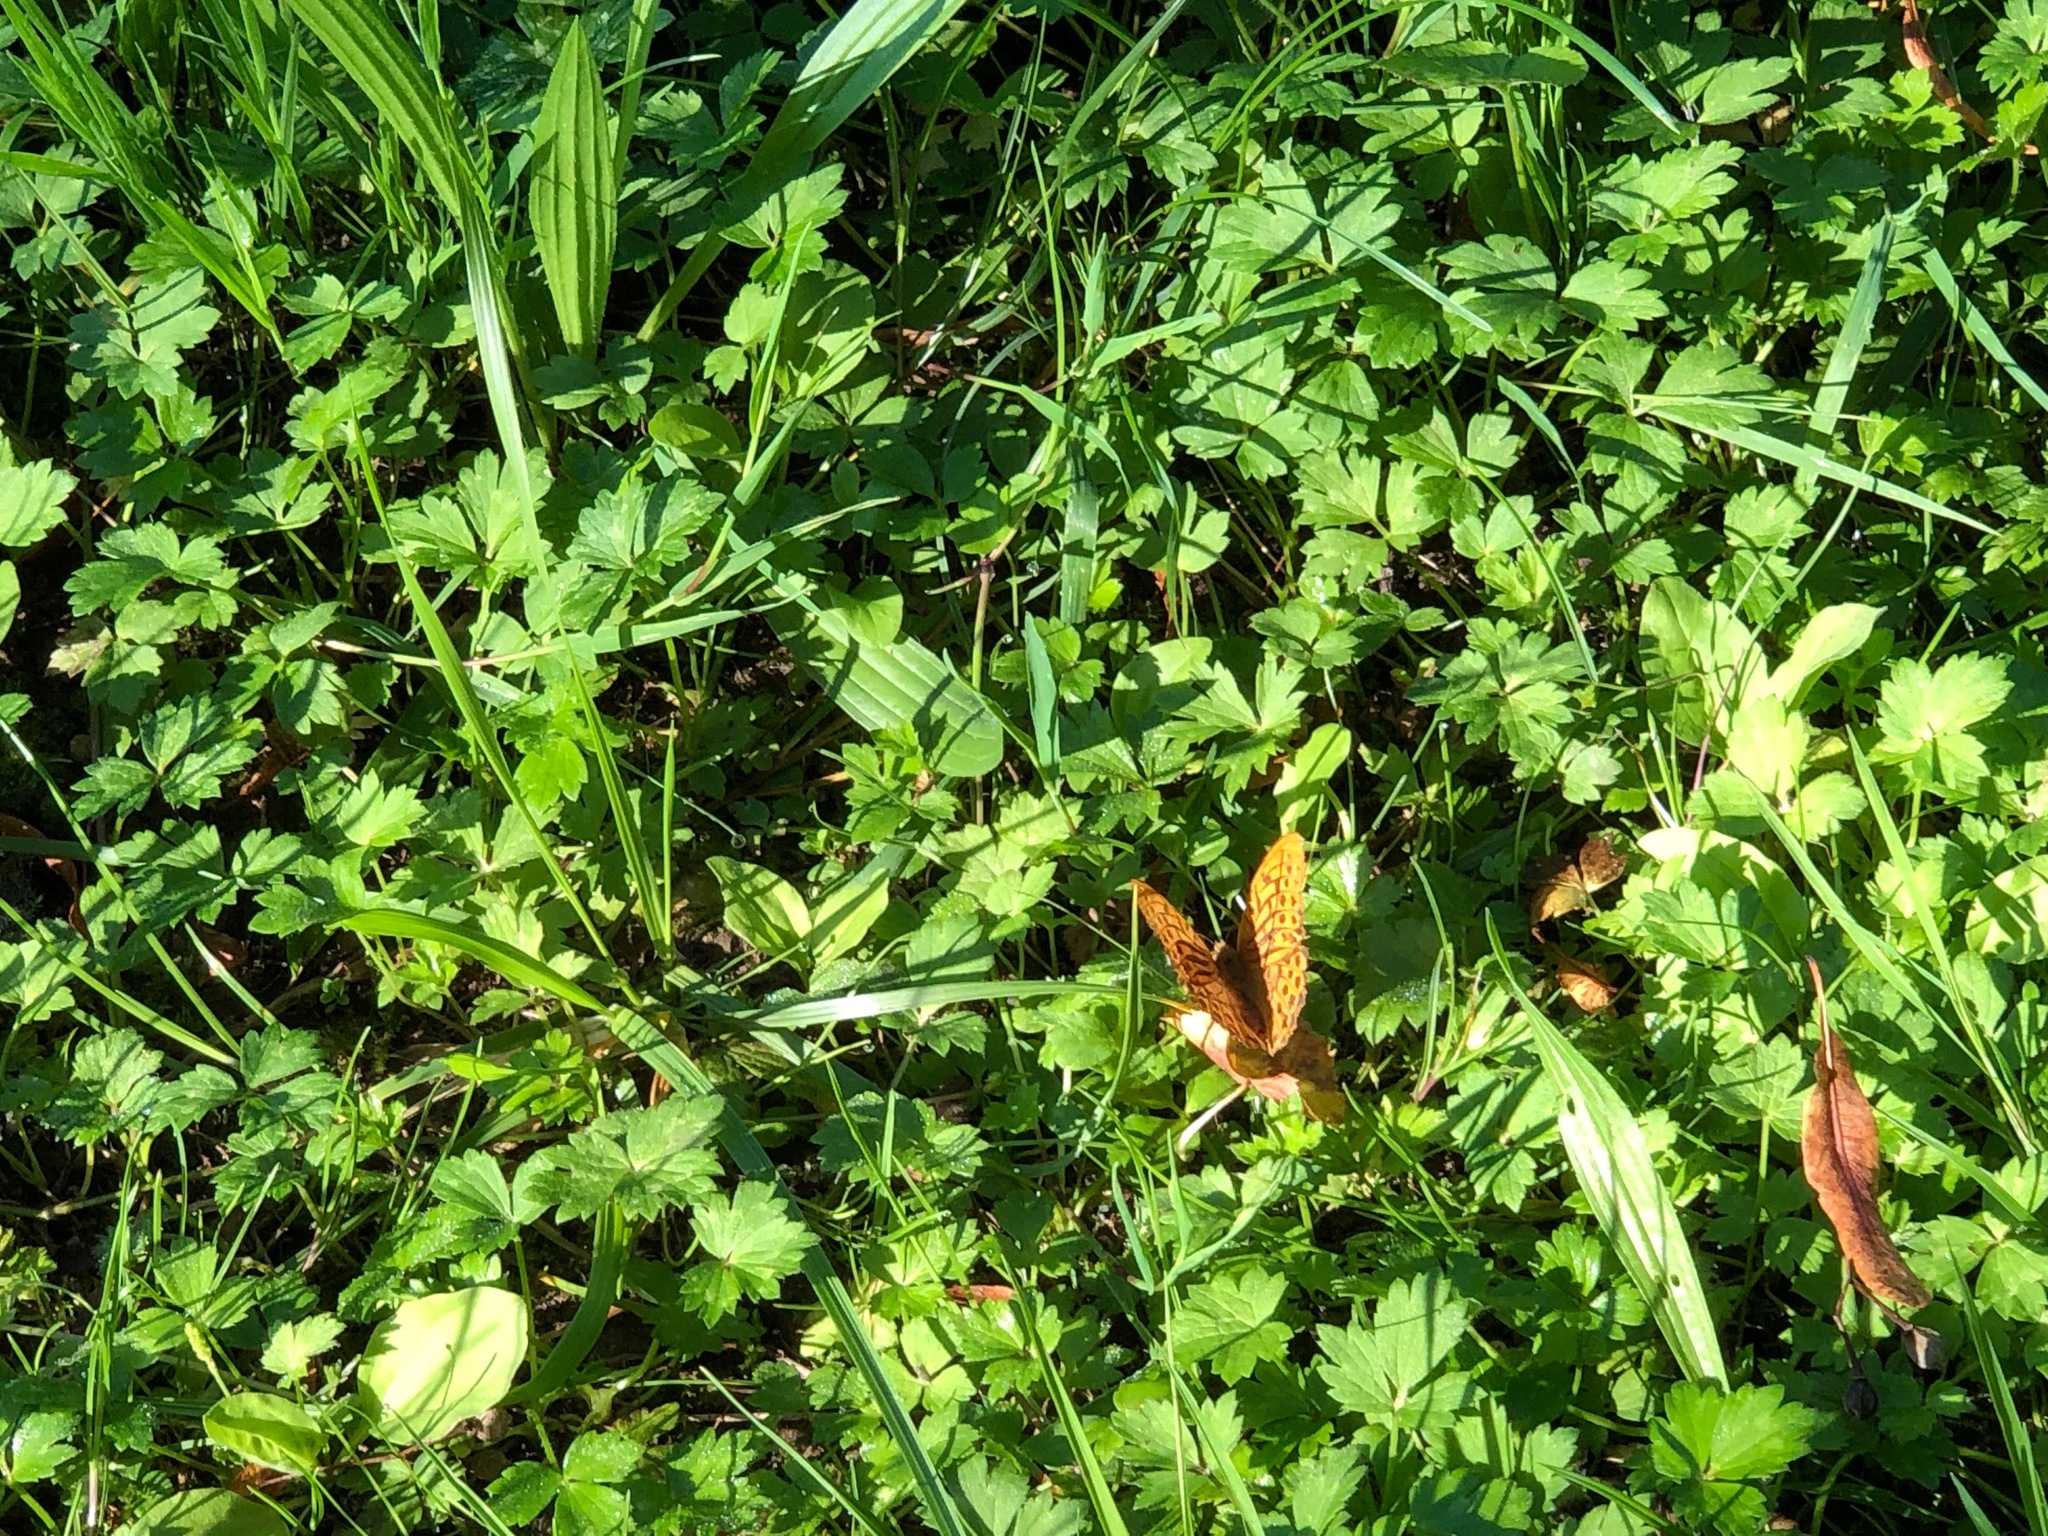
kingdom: Animalia
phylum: Arthropoda
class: Insecta
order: Lepidoptera
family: Nymphalidae
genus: Argynnis
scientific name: Argynnis paphia
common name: Silver-washed fritillary
